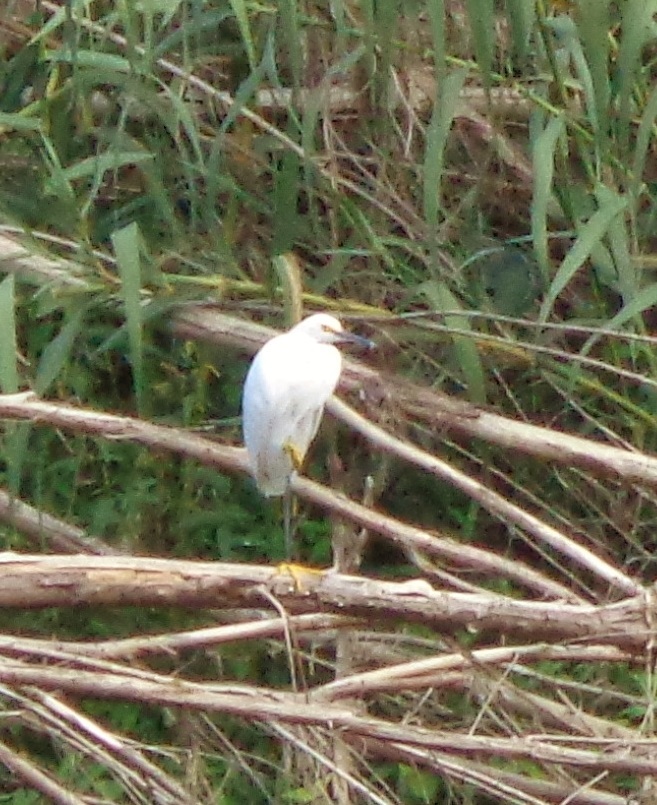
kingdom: Animalia
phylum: Chordata
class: Aves
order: Pelecaniformes
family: Ardeidae
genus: Egretta
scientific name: Egretta thula
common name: Snowy egret
